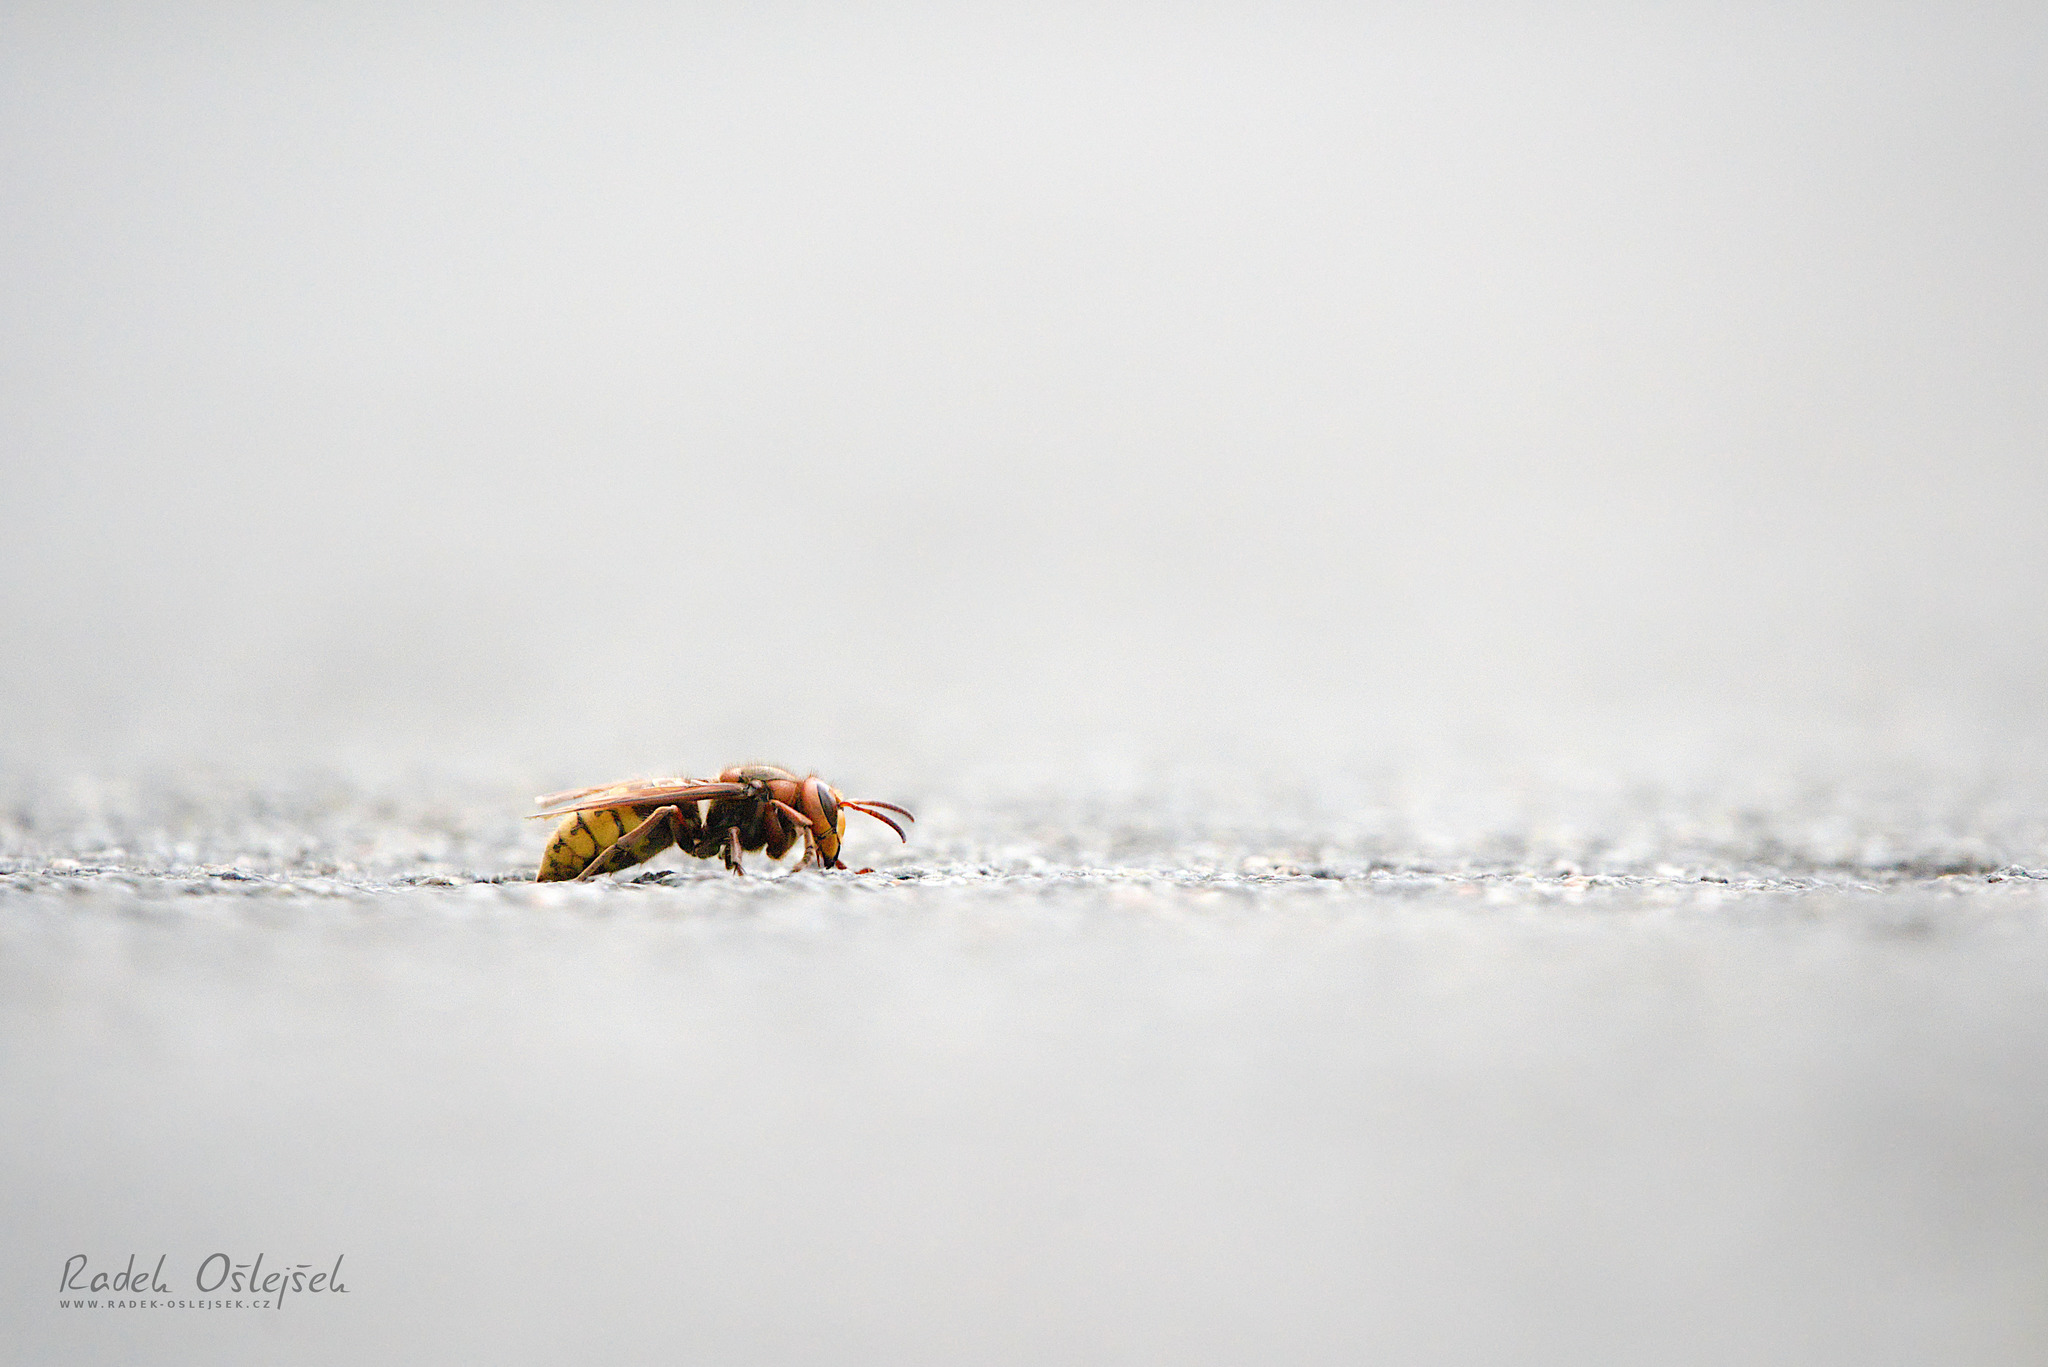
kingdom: Animalia
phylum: Arthropoda
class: Insecta
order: Hymenoptera
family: Vespidae
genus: Vespa
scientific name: Vespa crabro
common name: Hornet
